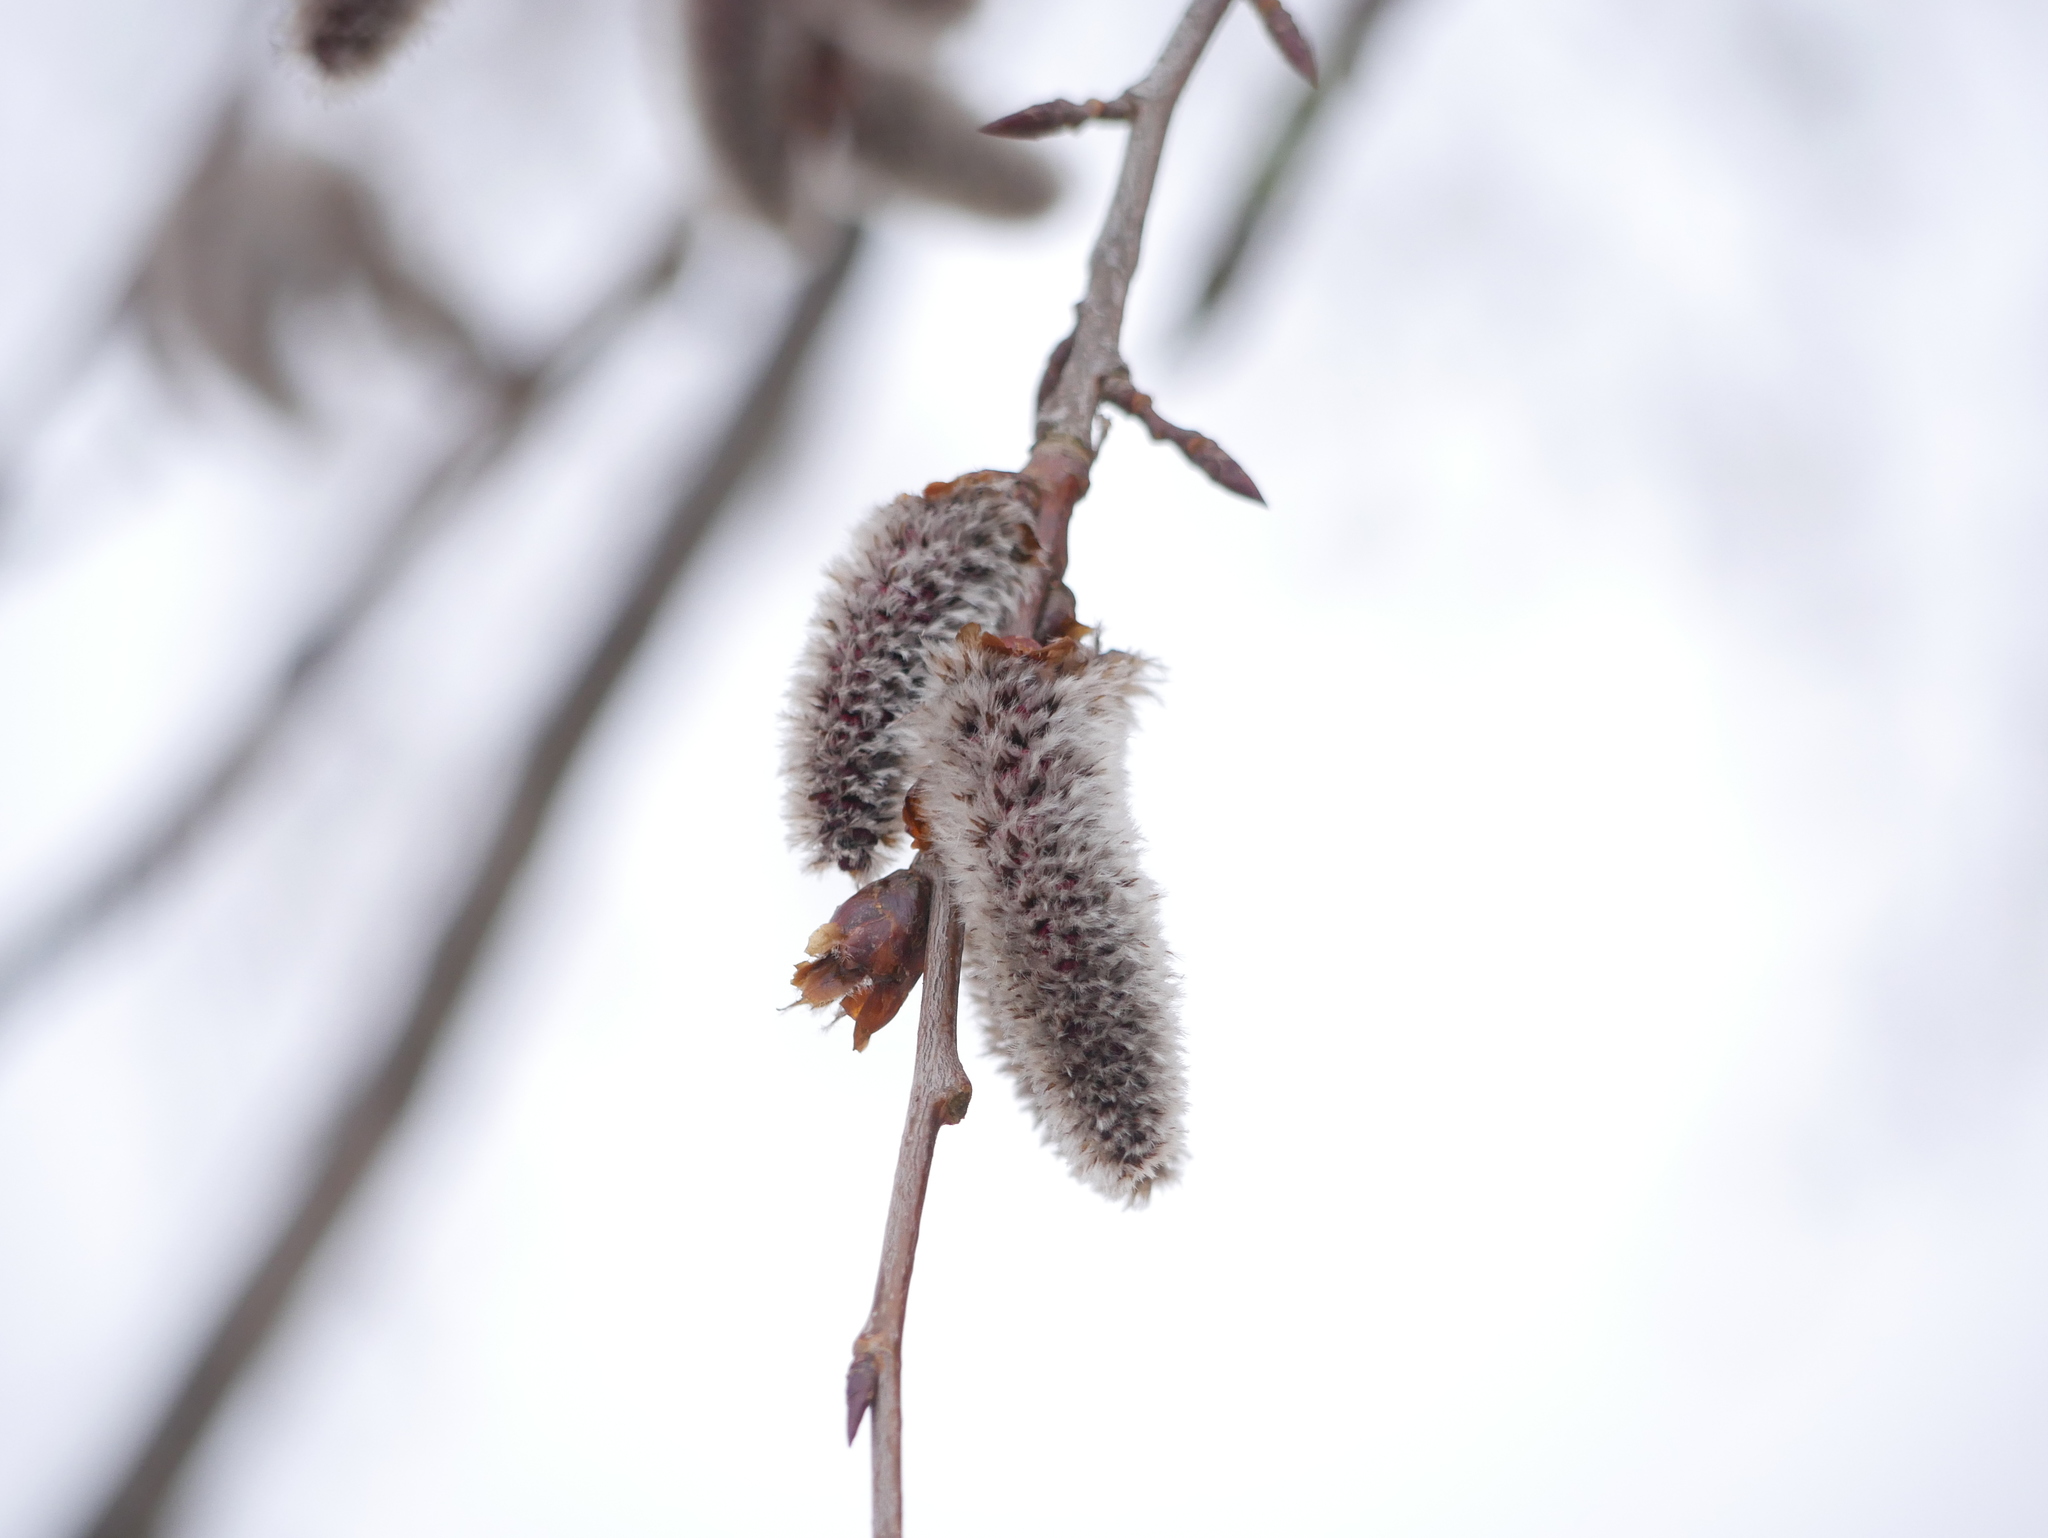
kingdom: Plantae
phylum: Tracheophyta
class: Magnoliopsida
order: Malpighiales
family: Salicaceae
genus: Populus
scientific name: Populus tremula
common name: European aspen
